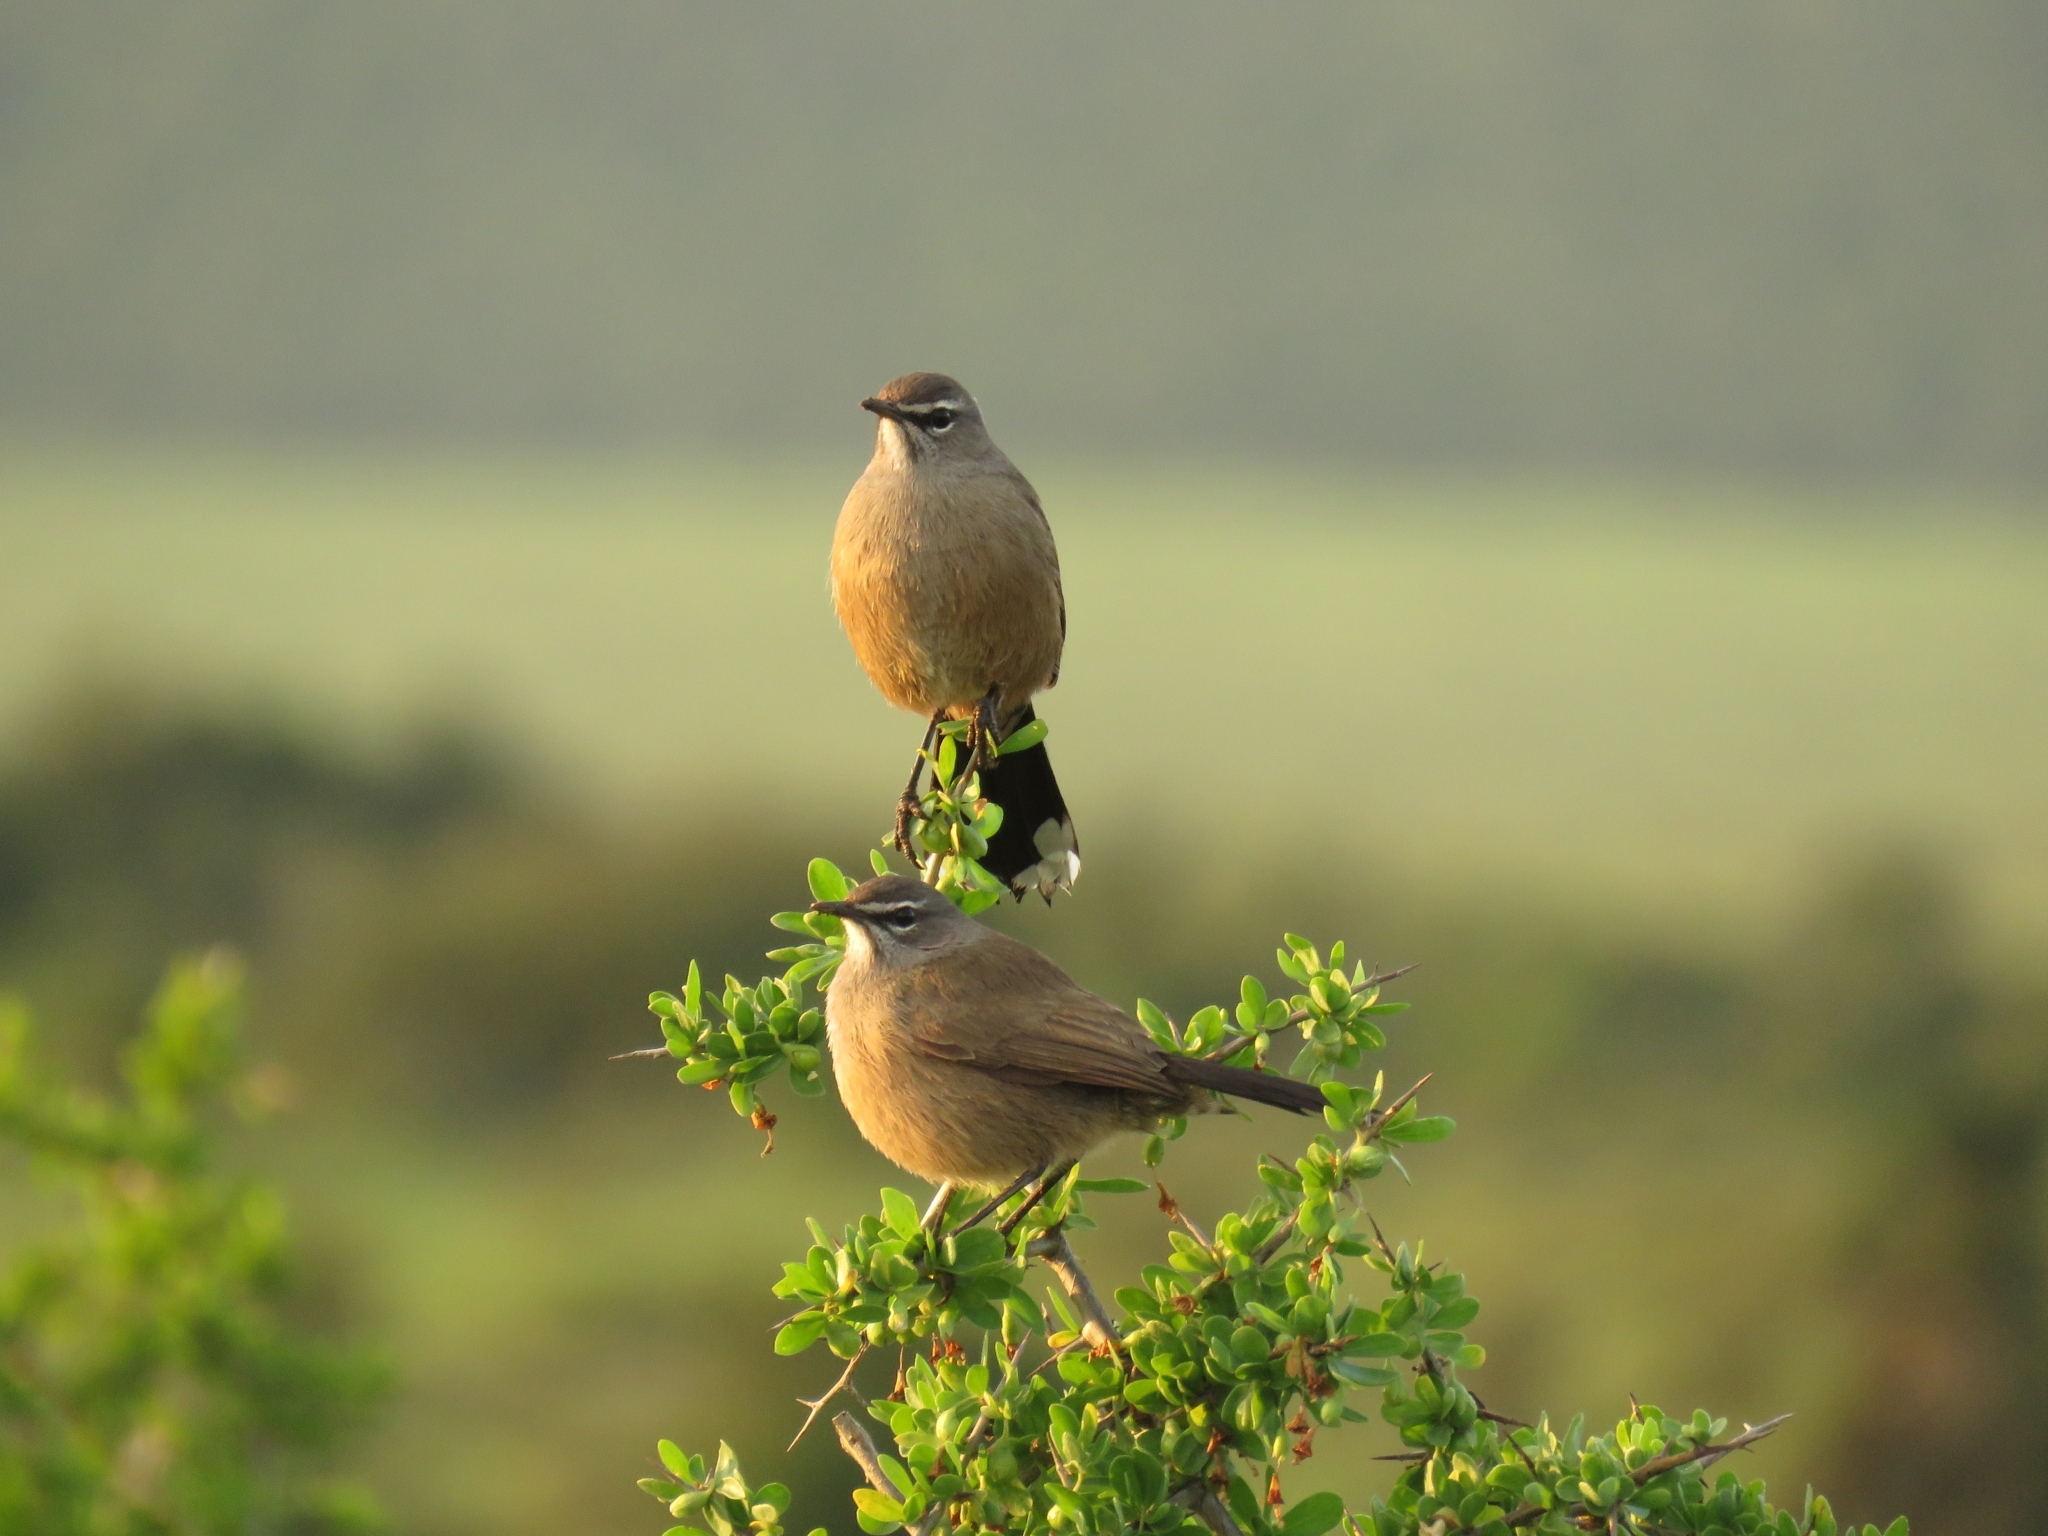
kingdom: Animalia
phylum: Chordata
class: Aves
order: Passeriformes
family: Muscicapidae
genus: Erythropygia
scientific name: Erythropygia coryphoeus
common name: Karoo scrub robin
